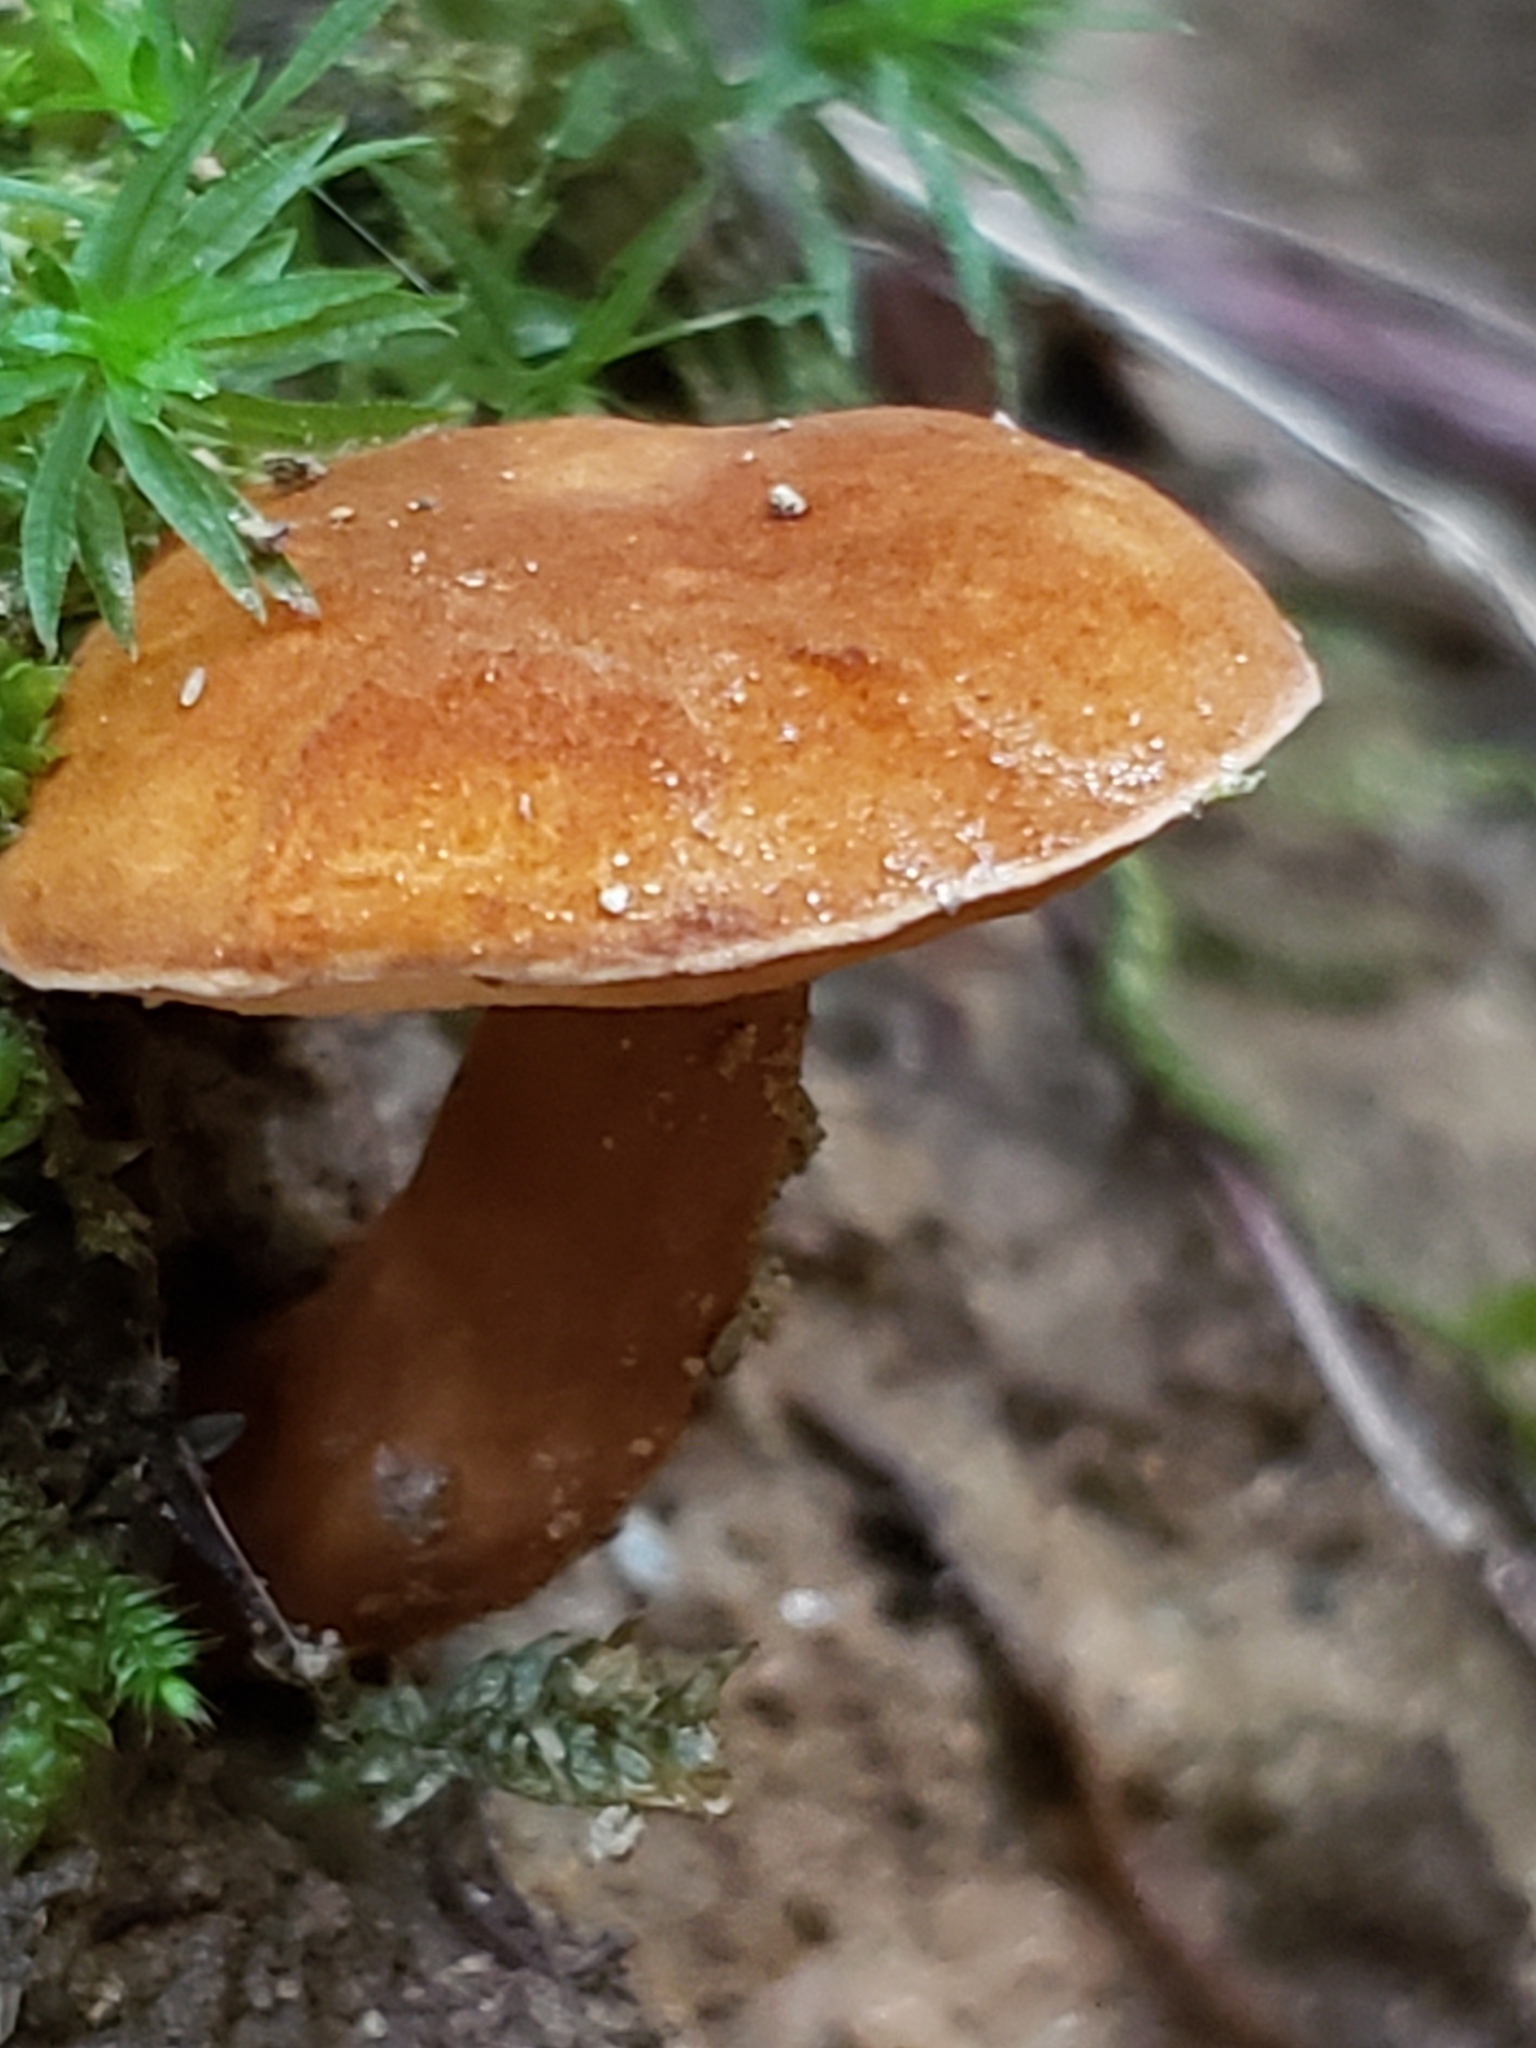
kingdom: Fungi
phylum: Basidiomycota
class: Agaricomycetes
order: Boletales
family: Gyroporaceae
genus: Gyroporus
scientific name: Gyroporus castaneus
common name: Chestnut bolete
